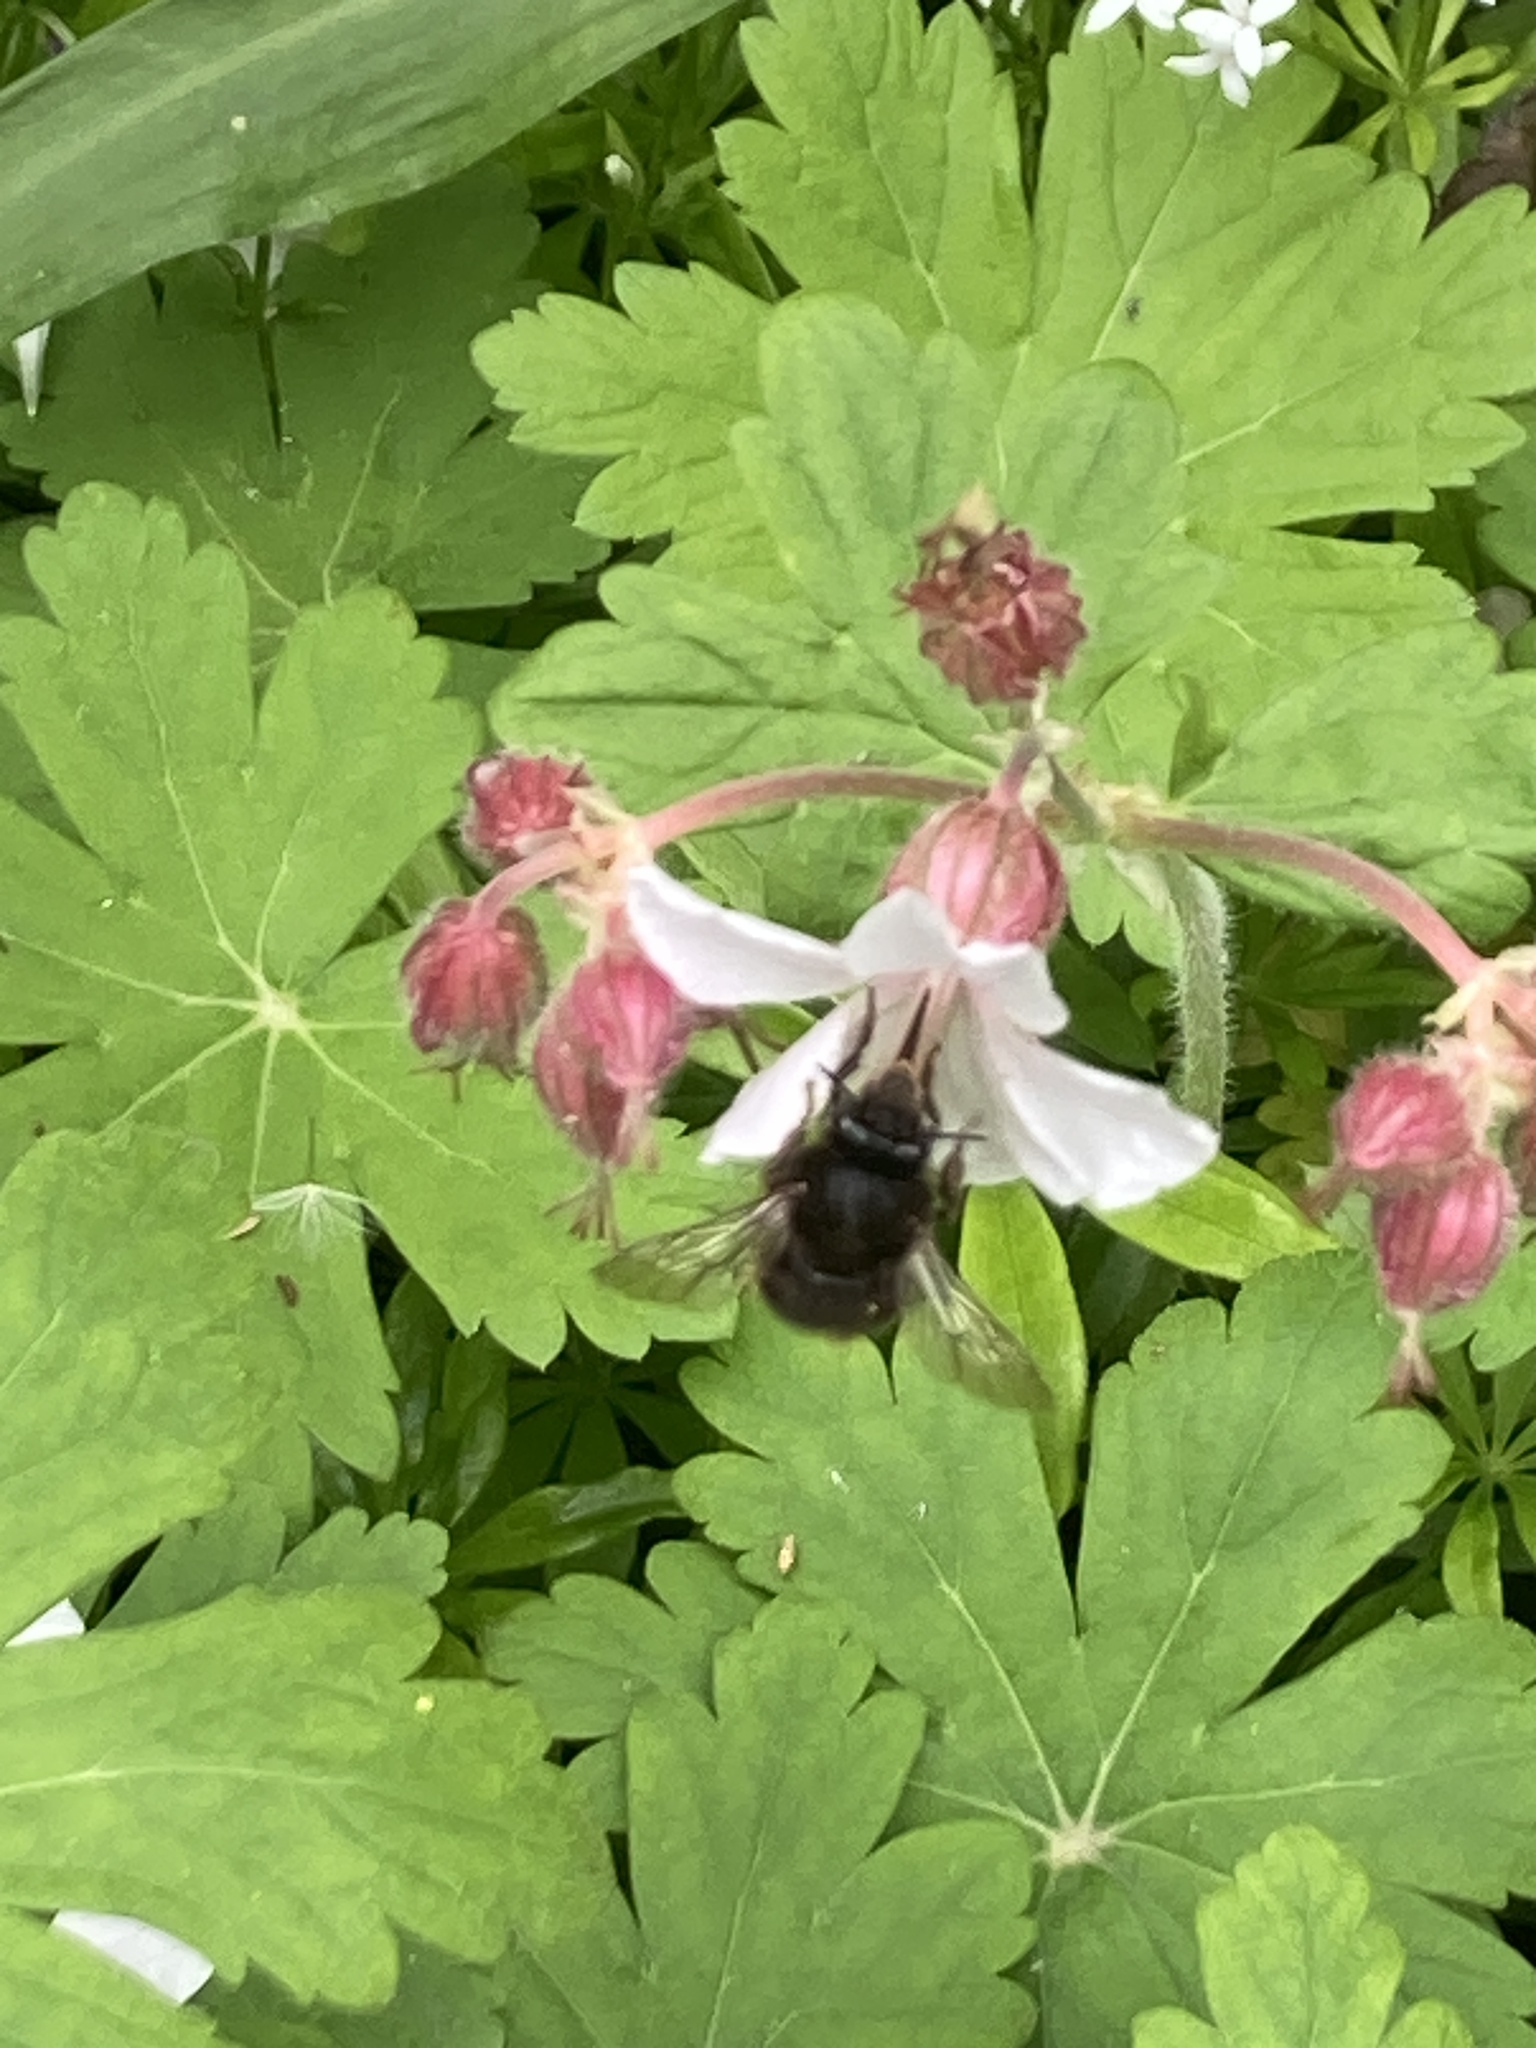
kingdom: Animalia
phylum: Arthropoda
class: Insecta
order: Hymenoptera
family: Apidae
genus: Anthophora
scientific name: Anthophora plumipes
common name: Hairy-footed flower bee
